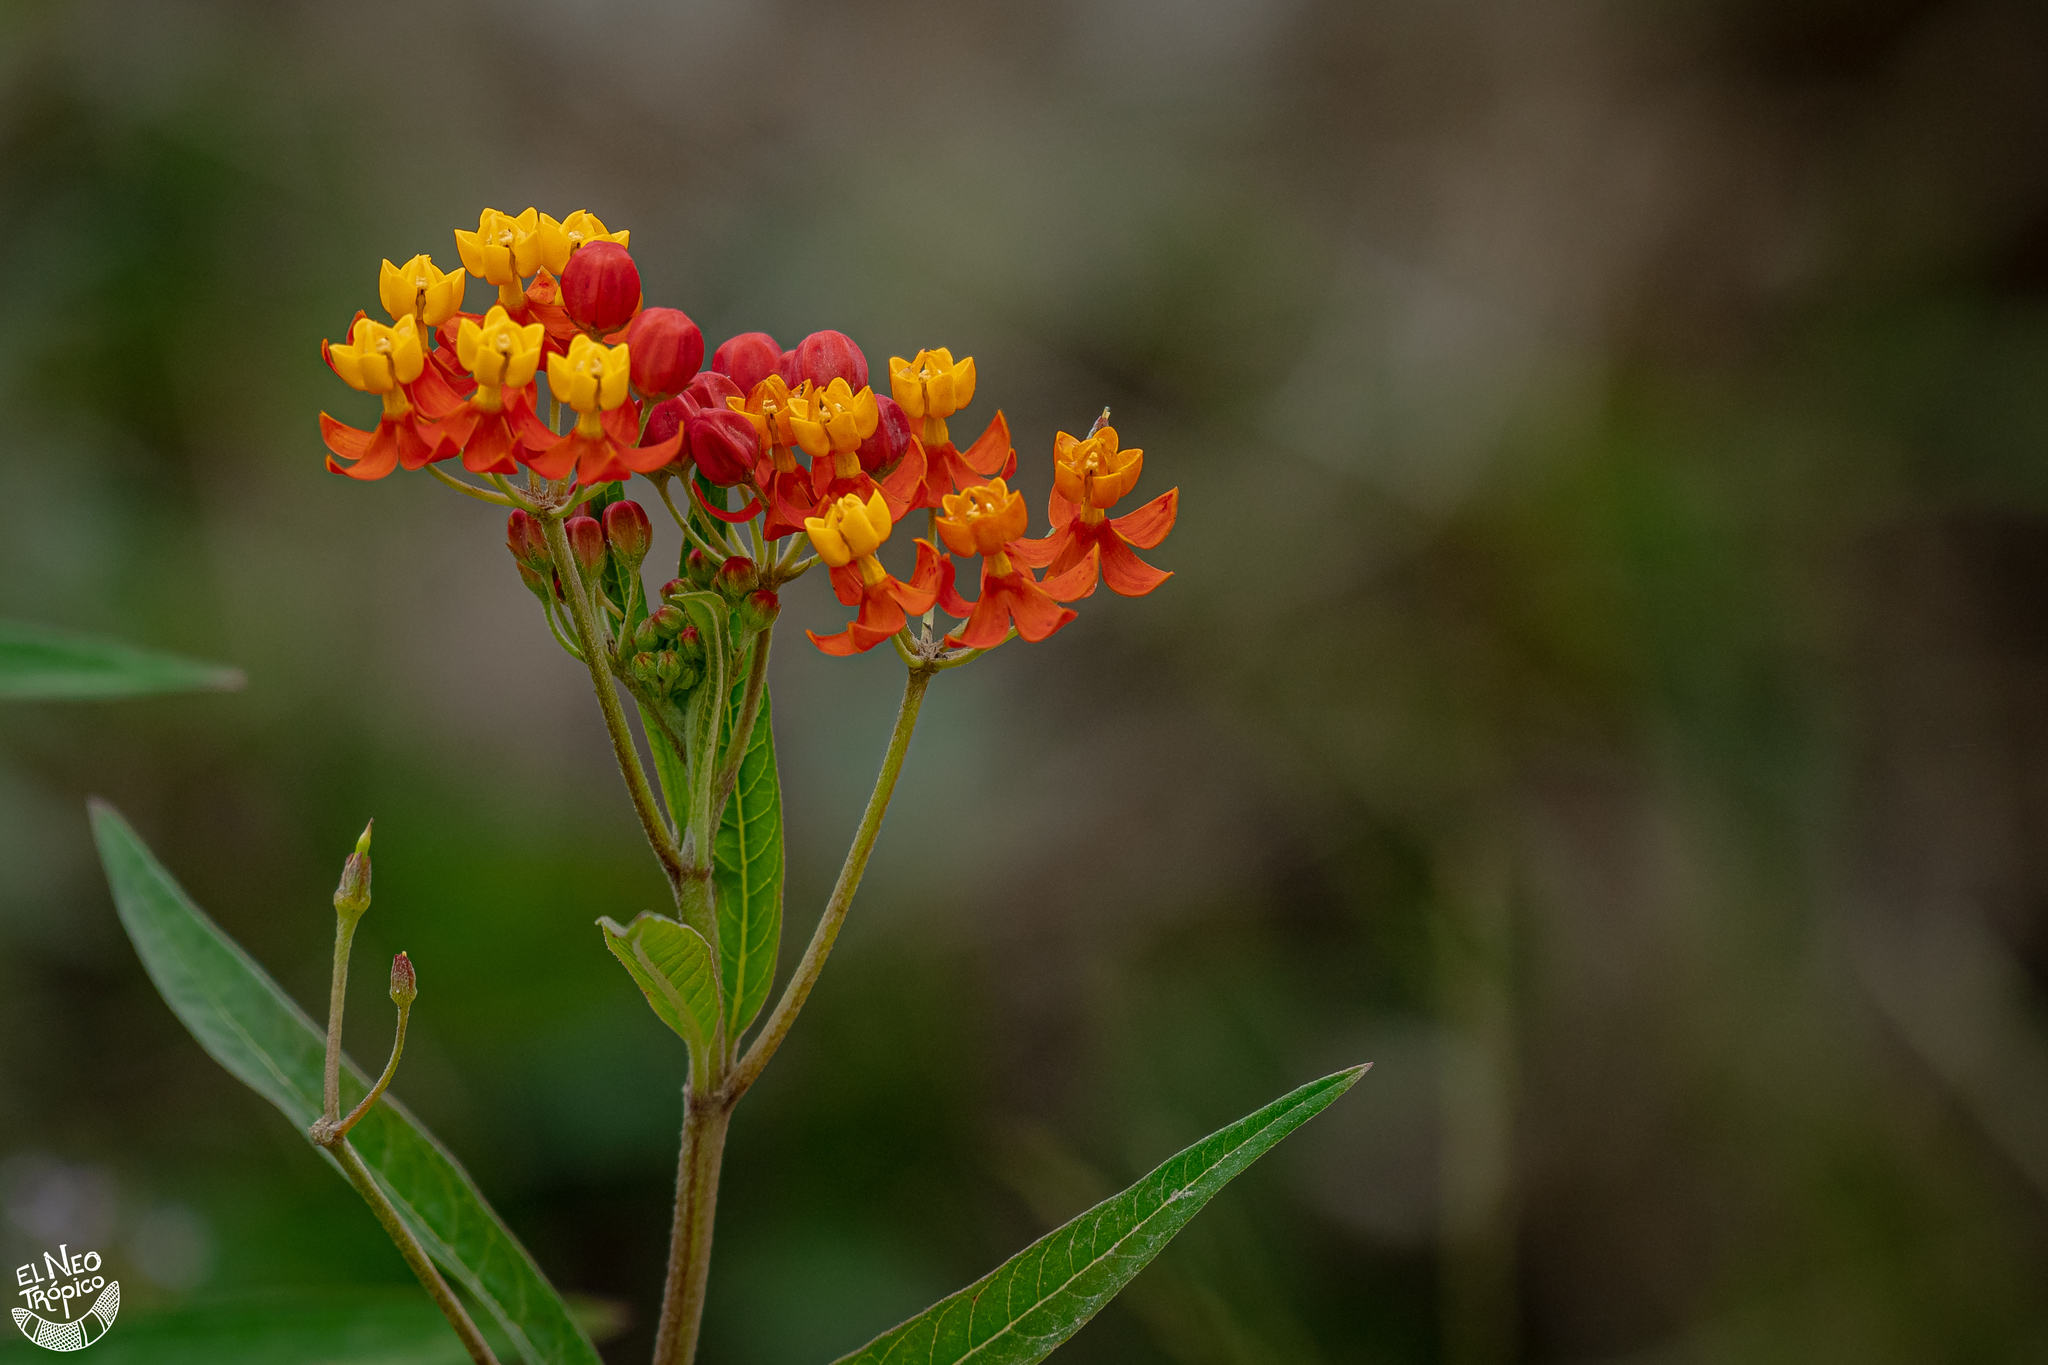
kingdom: Plantae
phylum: Tracheophyta
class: Magnoliopsida
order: Gentianales
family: Apocynaceae
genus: Asclepias
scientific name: Asclepias curassavica
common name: Bloodflower
